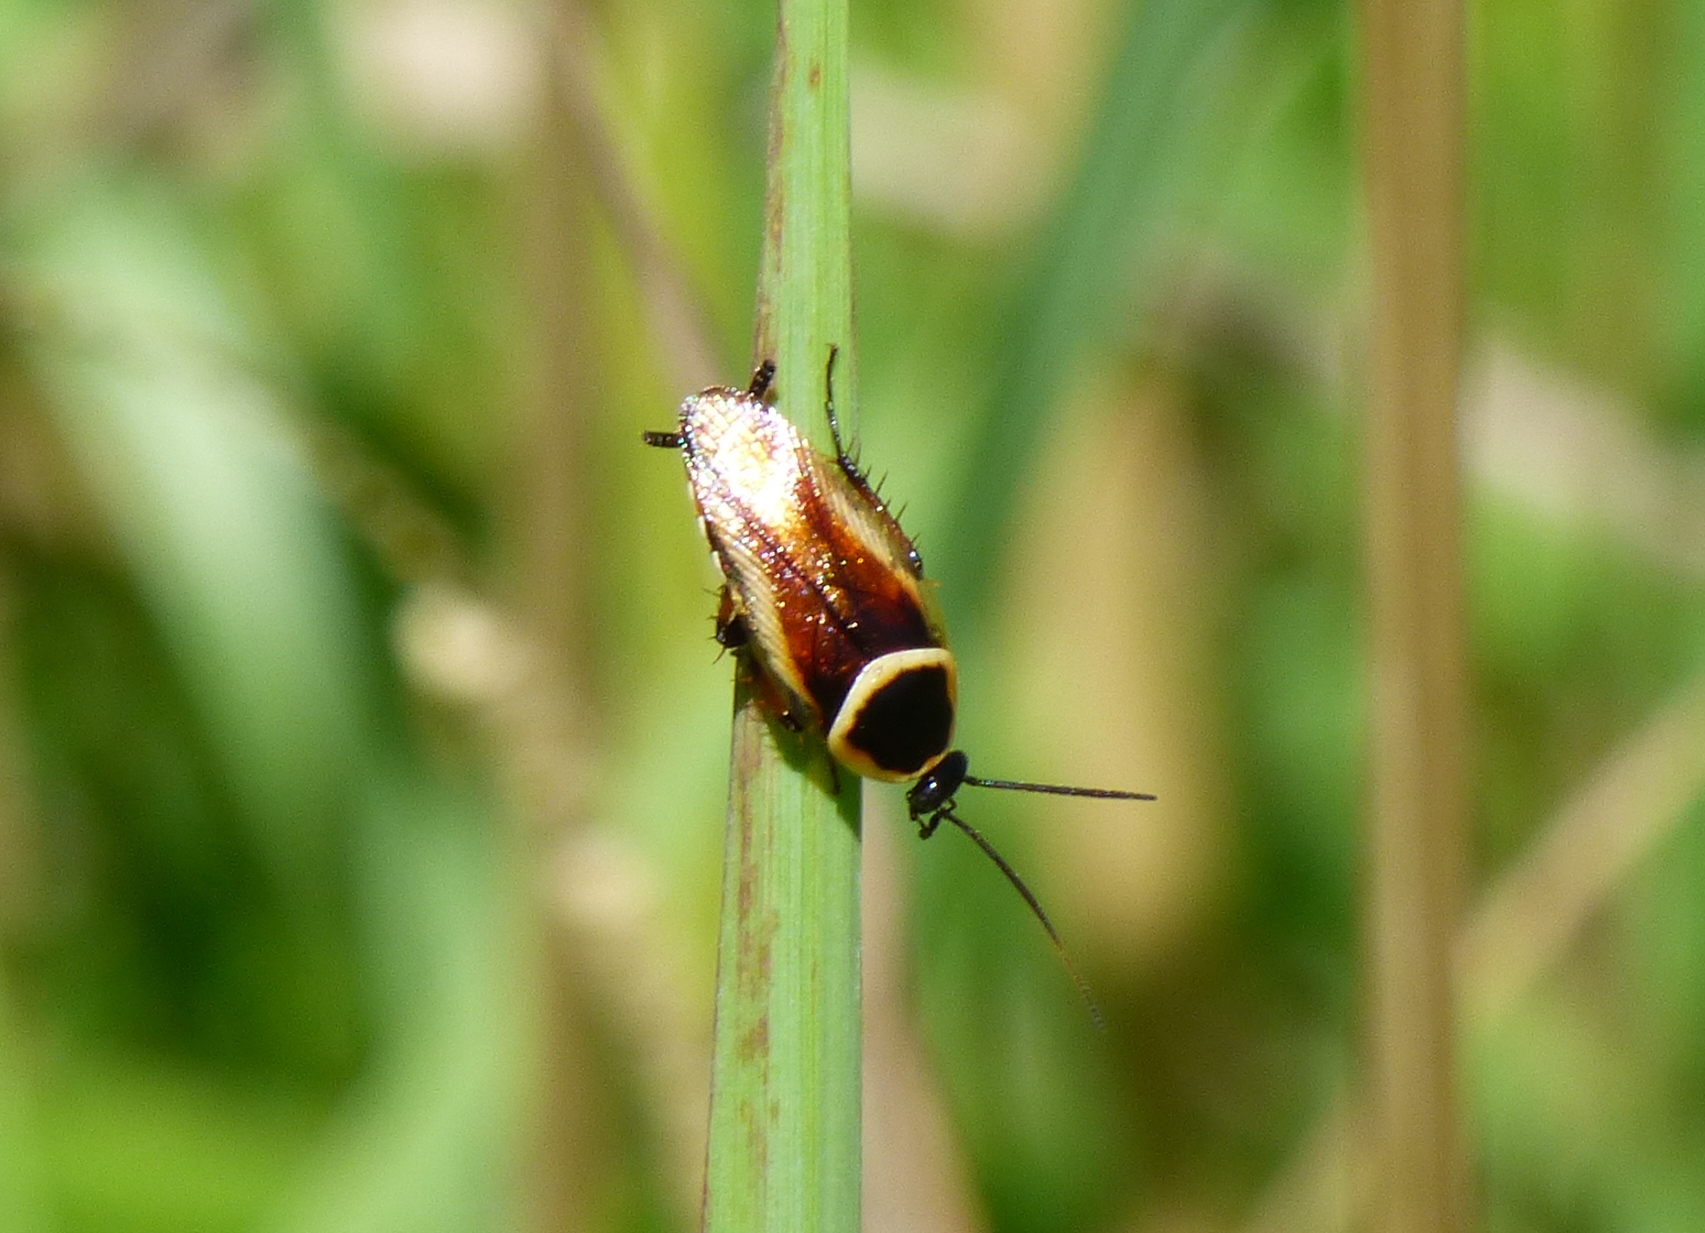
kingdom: Animalia
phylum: Arthropoda
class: Insecta
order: Blattodea
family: Ectobiidae
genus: Pseudomops
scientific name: Pseudomops neglectus
